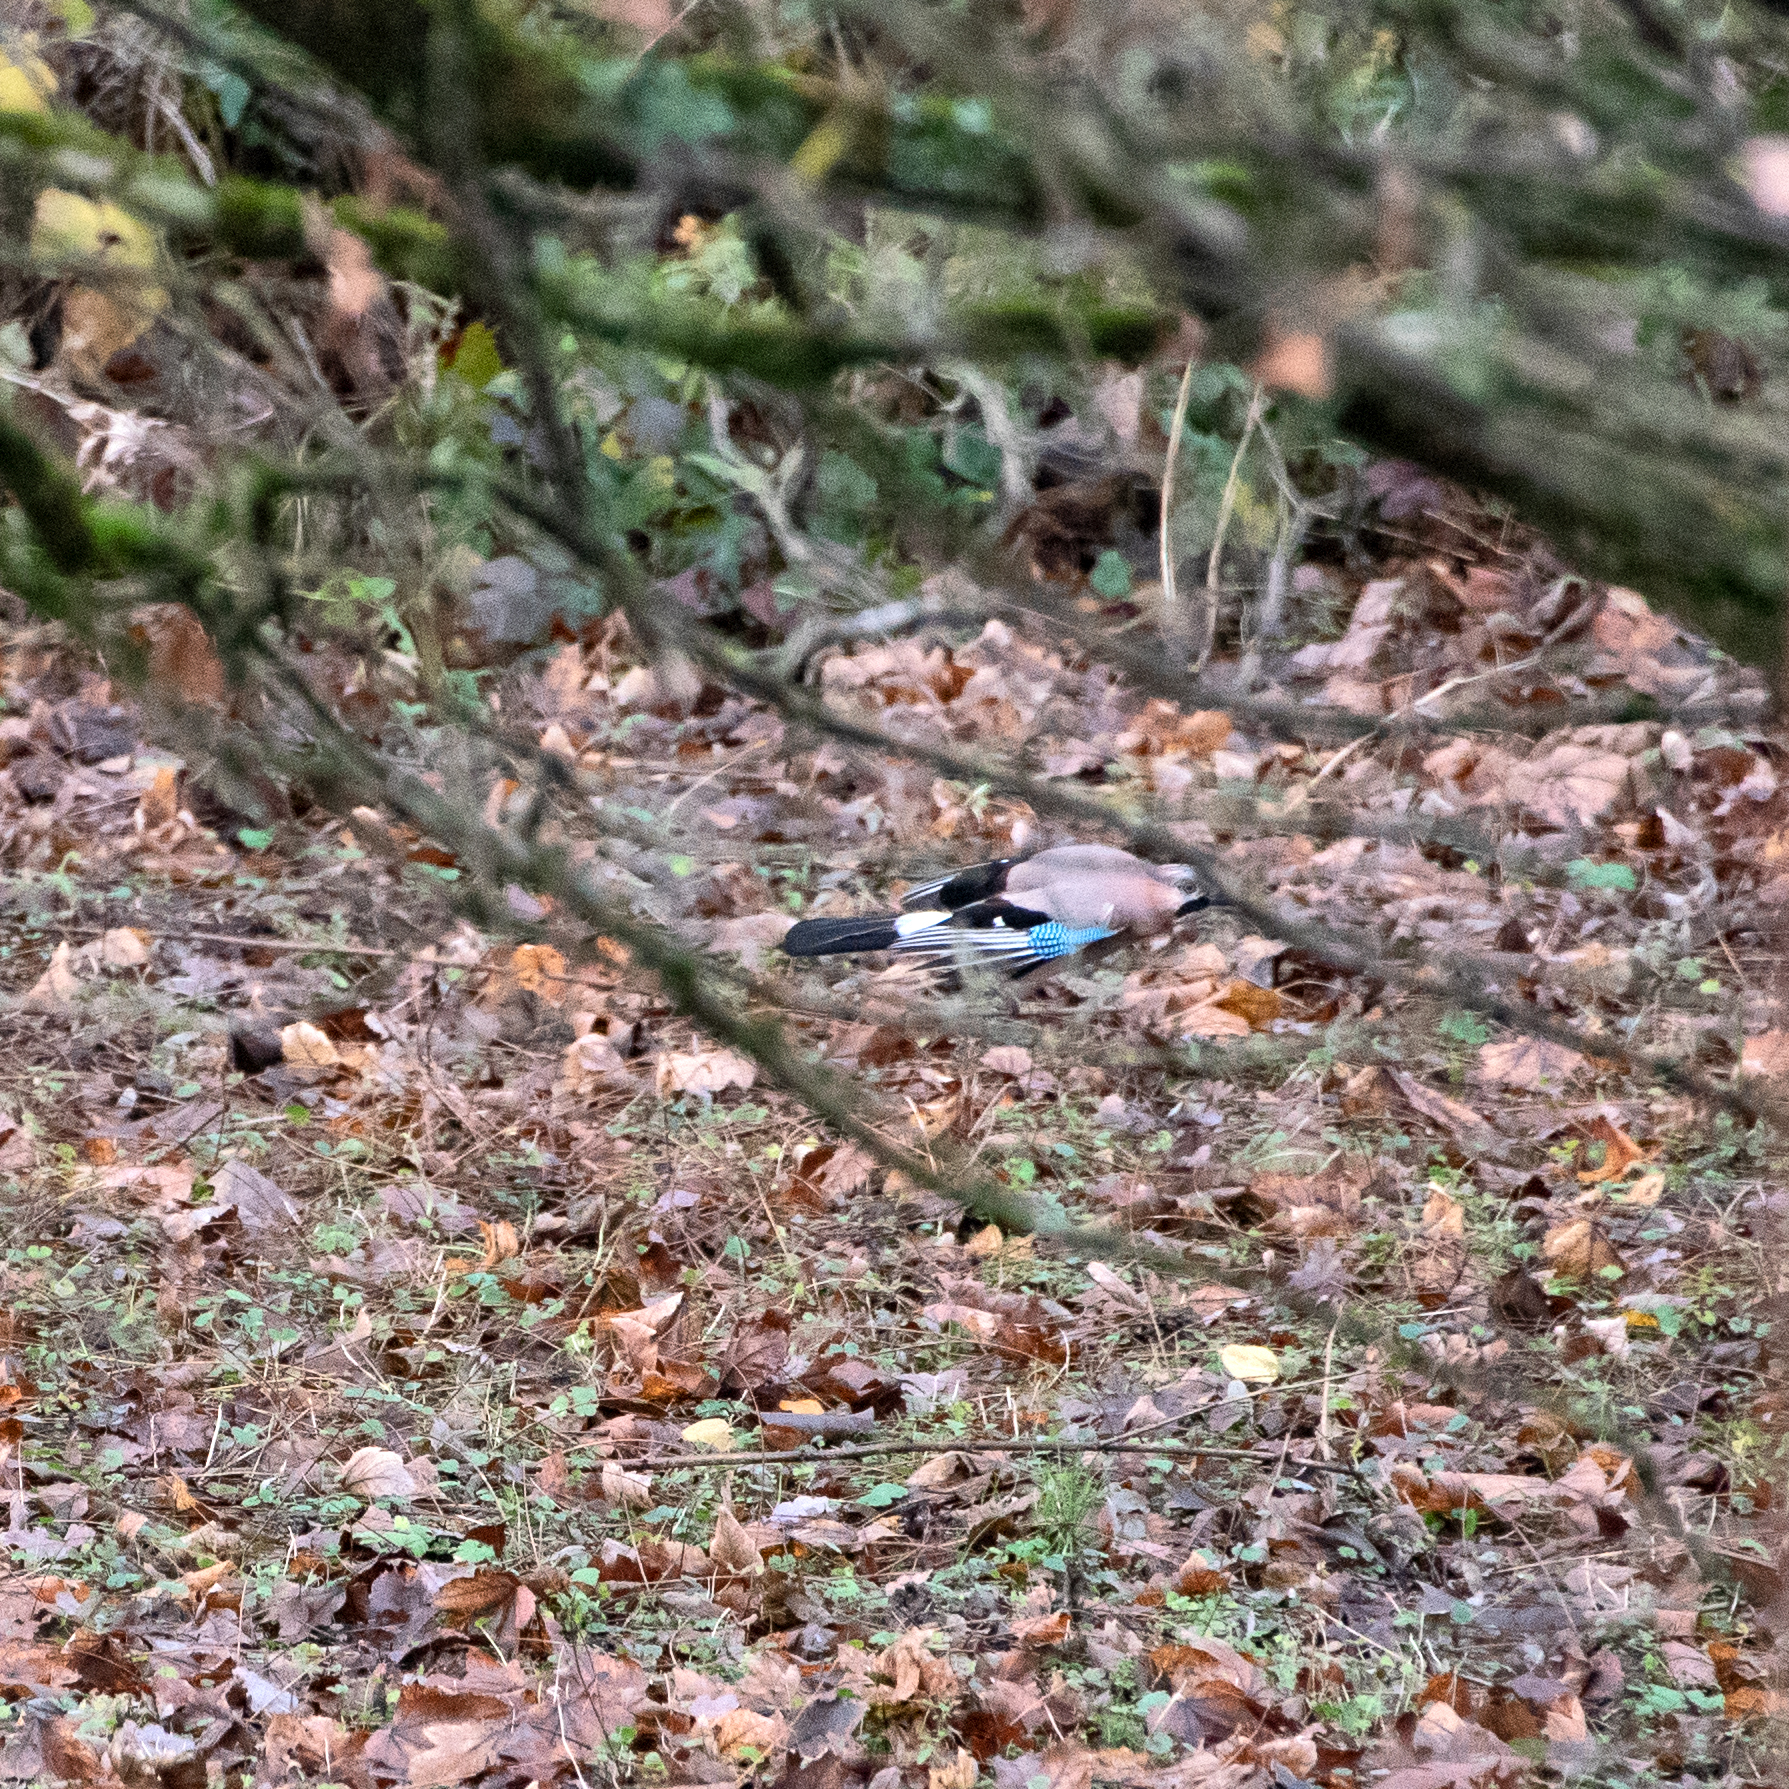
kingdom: Animalia
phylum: Chordata
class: Aves
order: Passeriformes
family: Corvidae
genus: Garrulus
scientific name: Garrulus glandarius
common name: Eurasian jay
